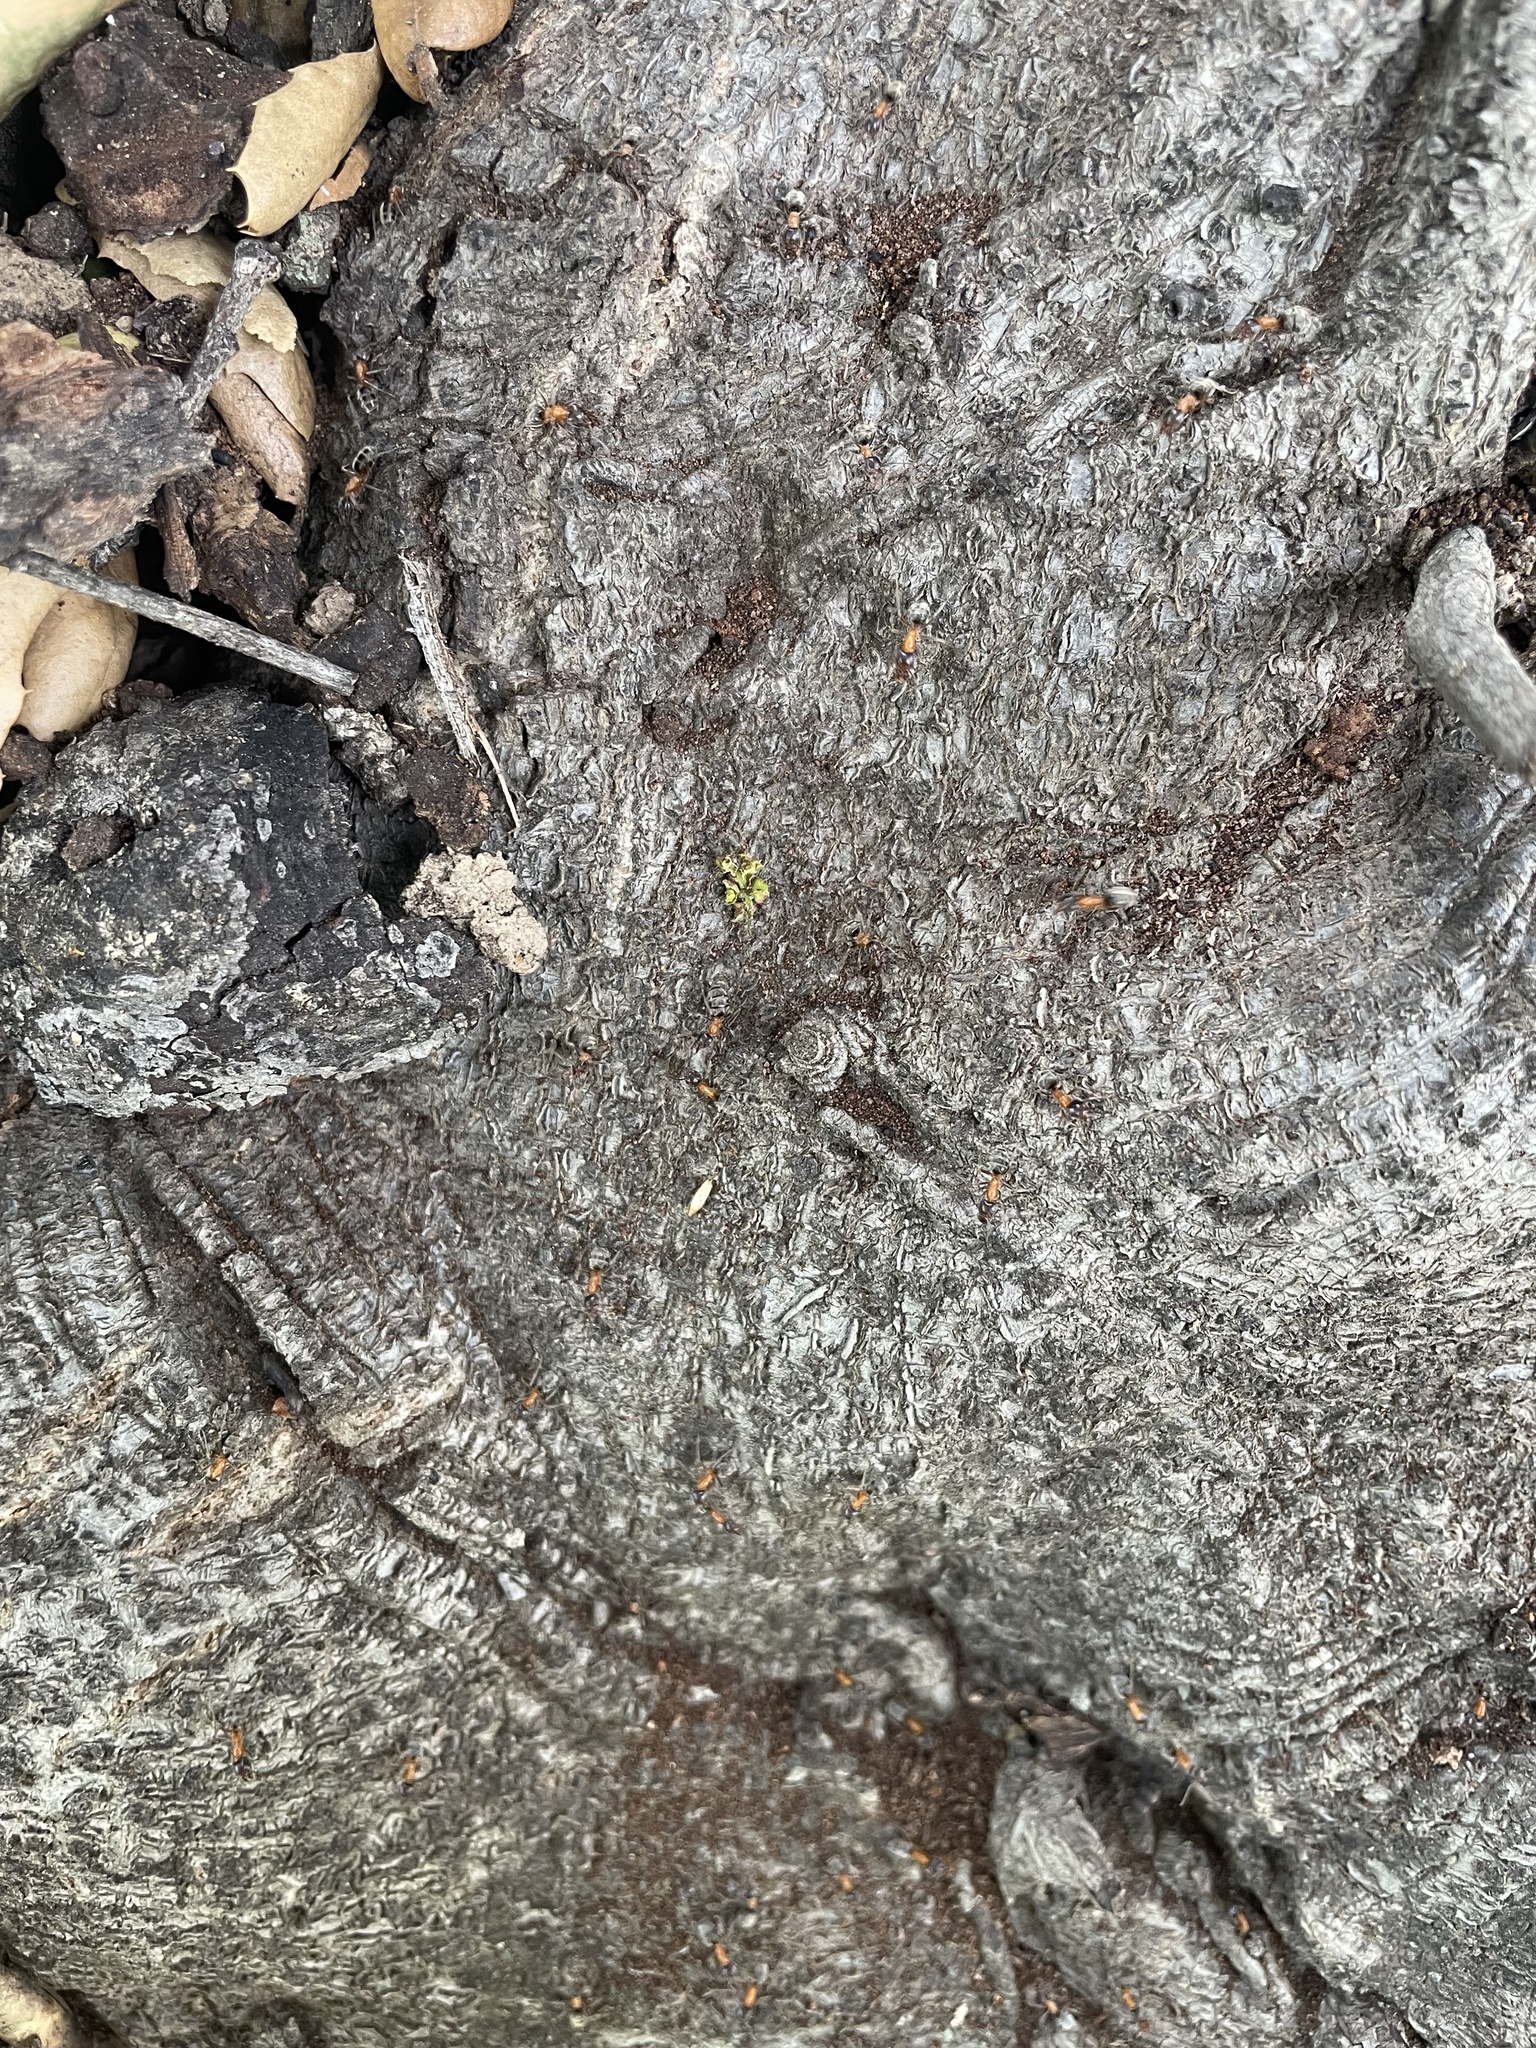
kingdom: Animalia
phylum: Arthropoda
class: Insecta
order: Hymenoptera
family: Formicidae
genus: Liometopum
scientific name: Liometopum occidentale
